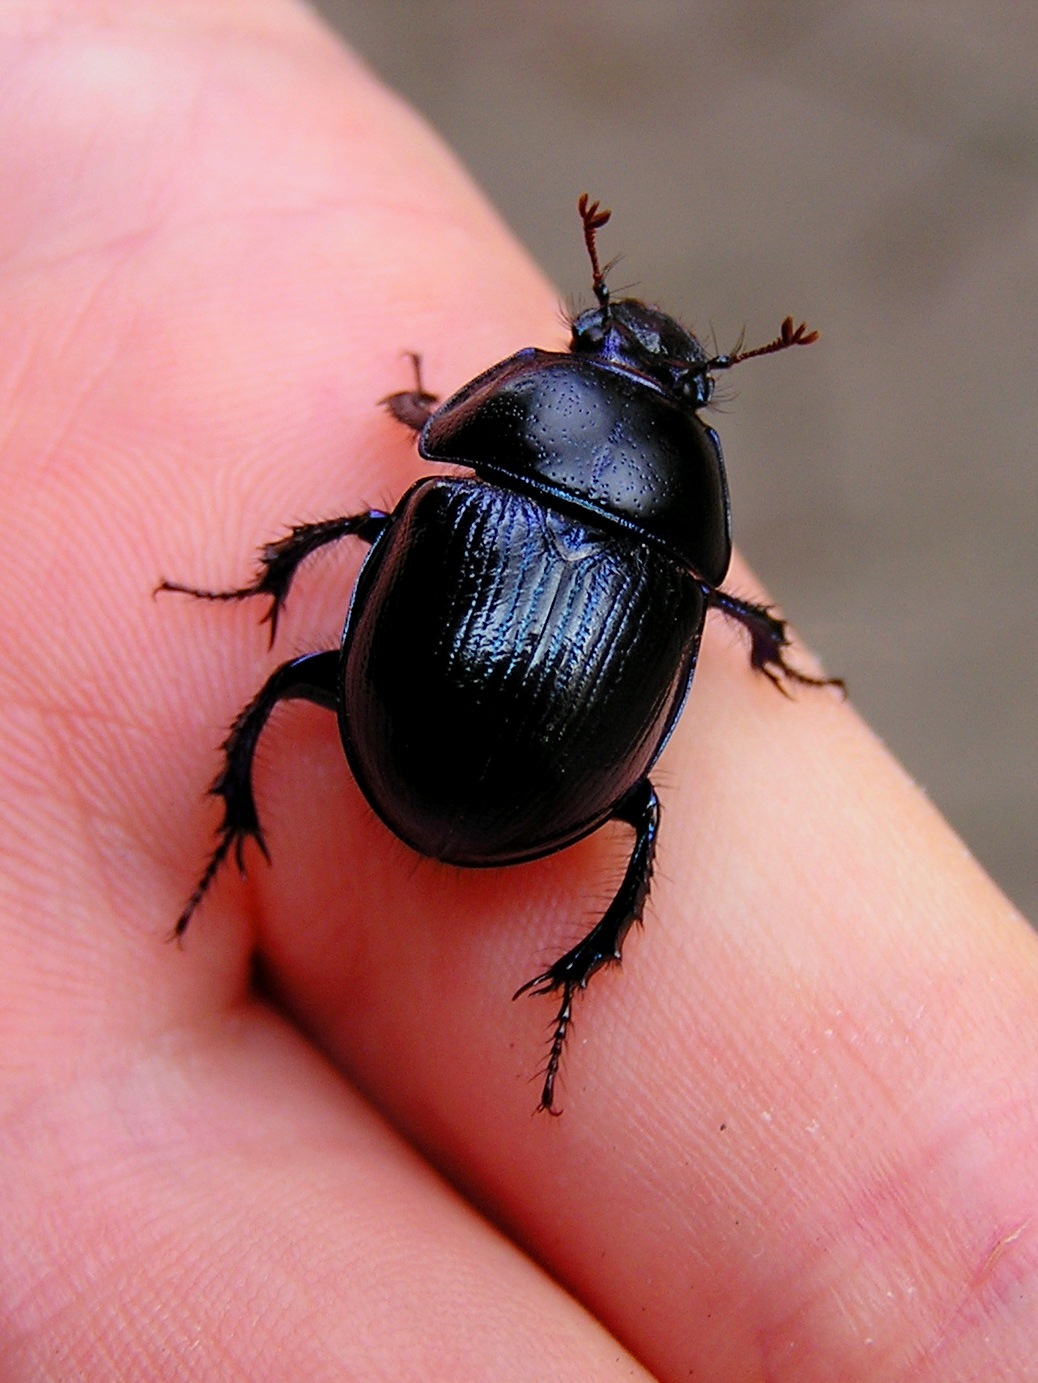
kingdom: Animalia
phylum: Arthropoda
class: Insecta
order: Coleoptera
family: Geotrupidae
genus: Anoplotrupes
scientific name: Anoplotrupes stercorosus
